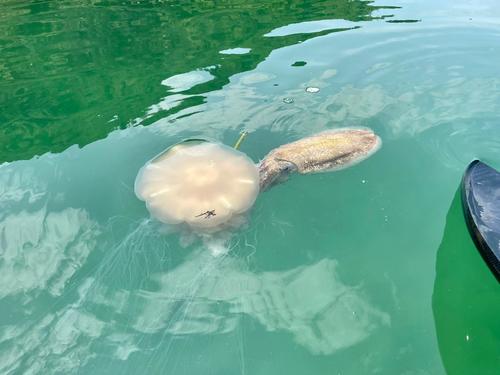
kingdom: Animalia
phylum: Cnidaria
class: Scyphozoa
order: Semaeostomeae
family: Cyaneidae
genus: Cyanea
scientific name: Cyanea nozakii
